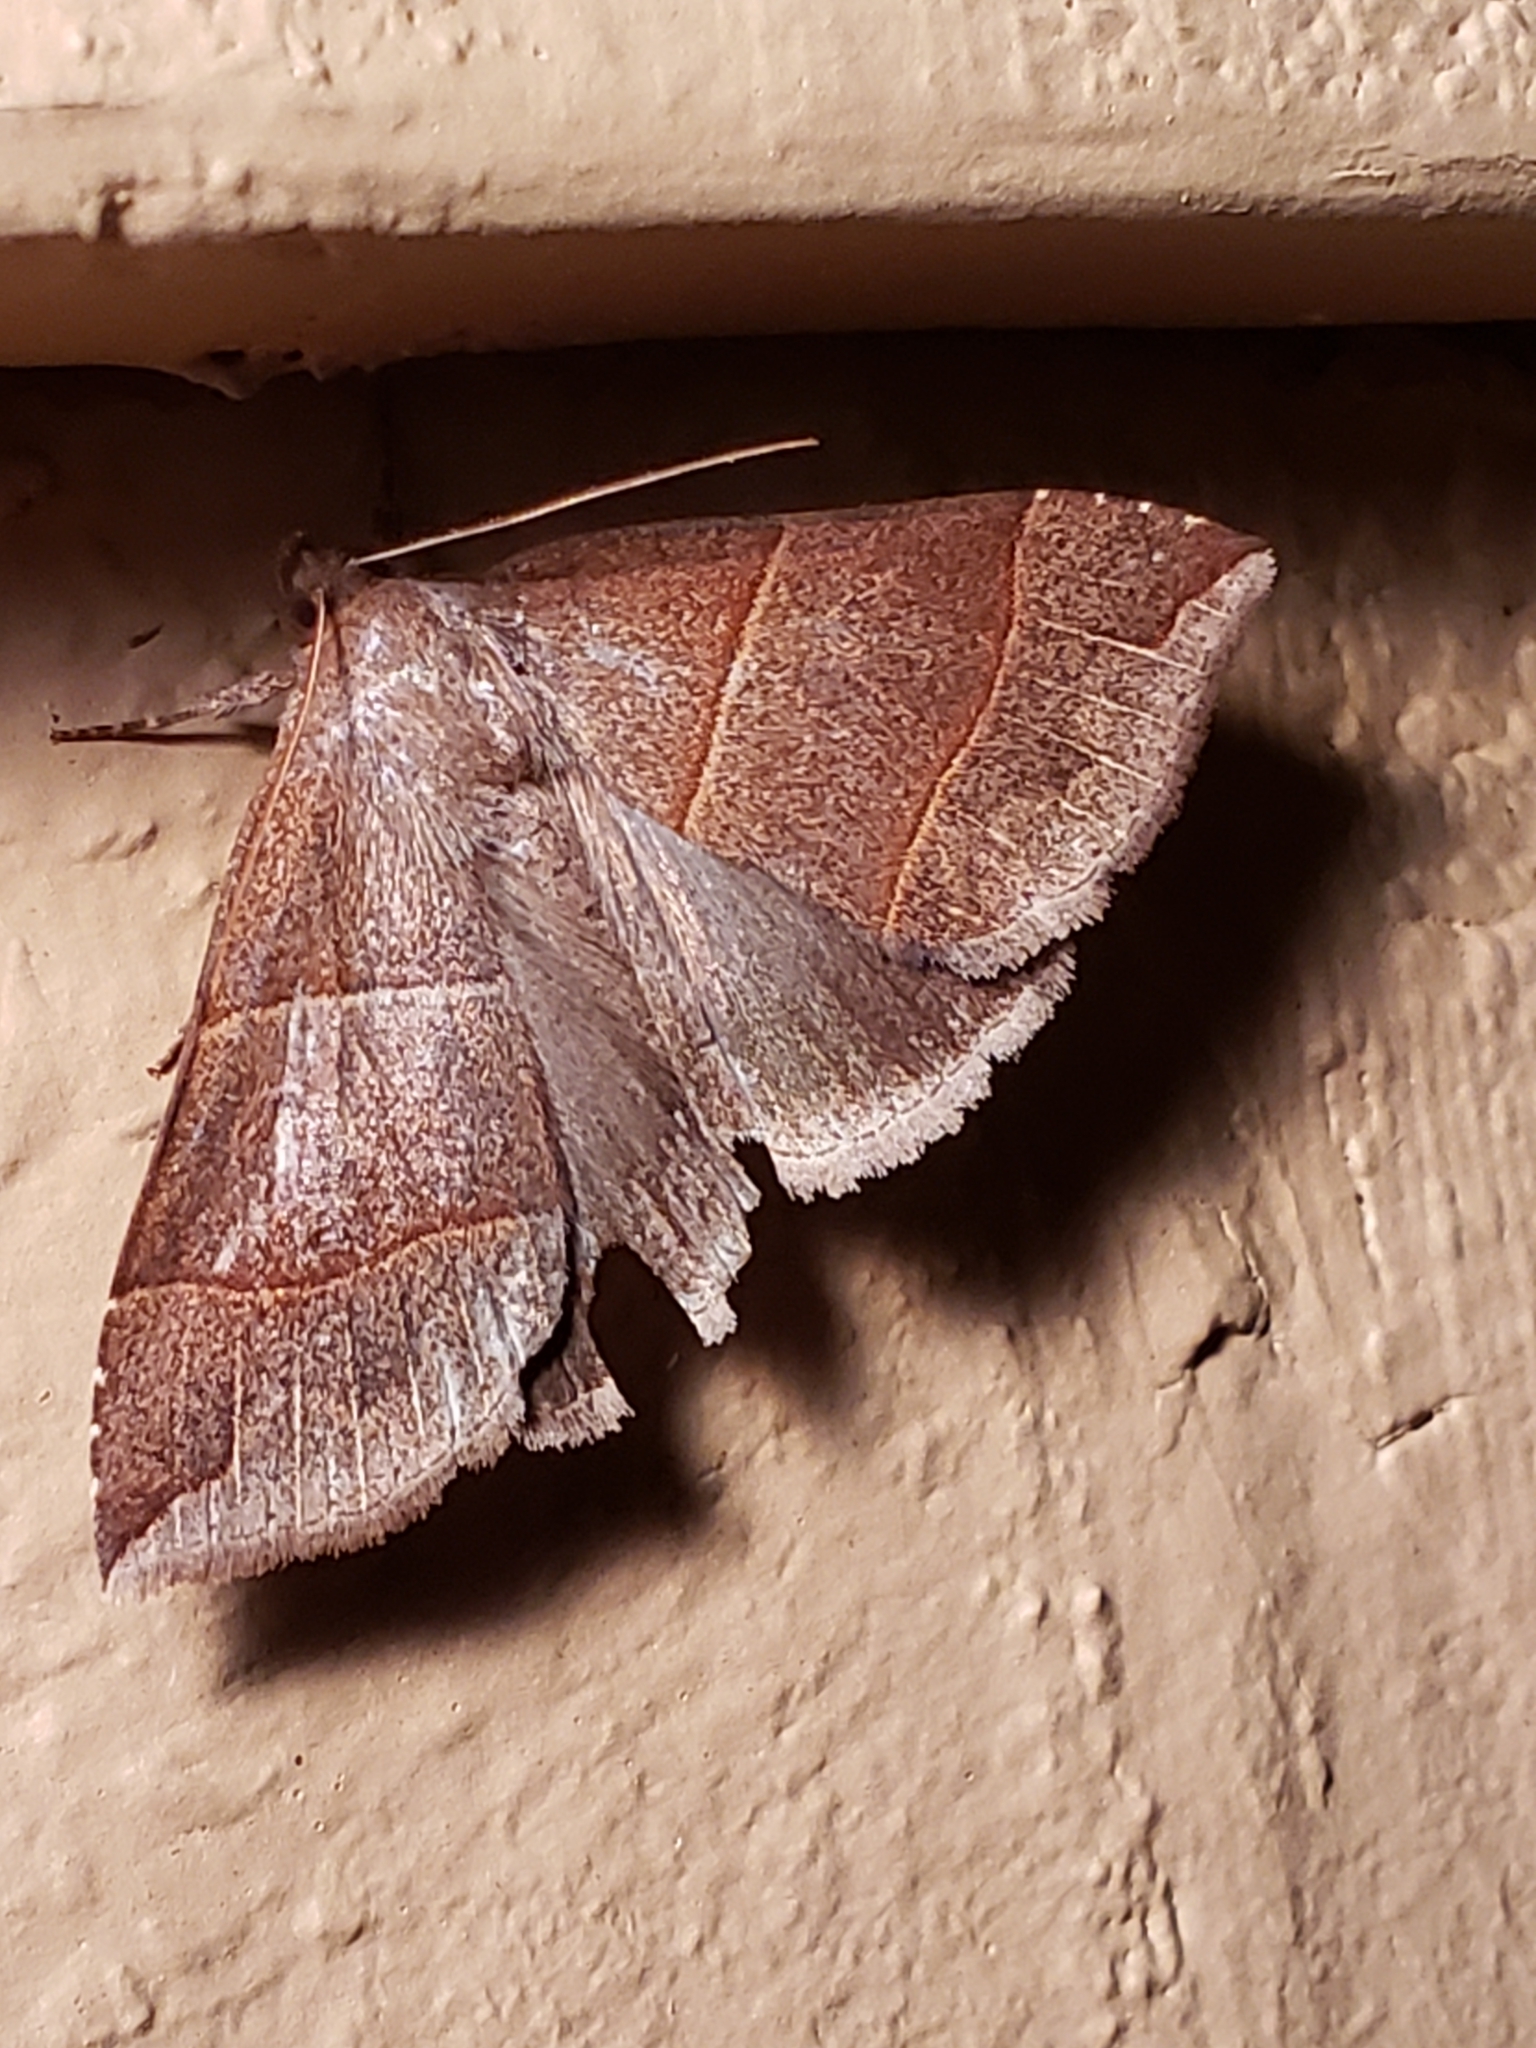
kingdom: Animalia
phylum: Arthropoda
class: Insecta
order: Lepidoptera
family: Erebidae
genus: Parallelia
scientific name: Parallelia bistriaris
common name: Maple looper moth
